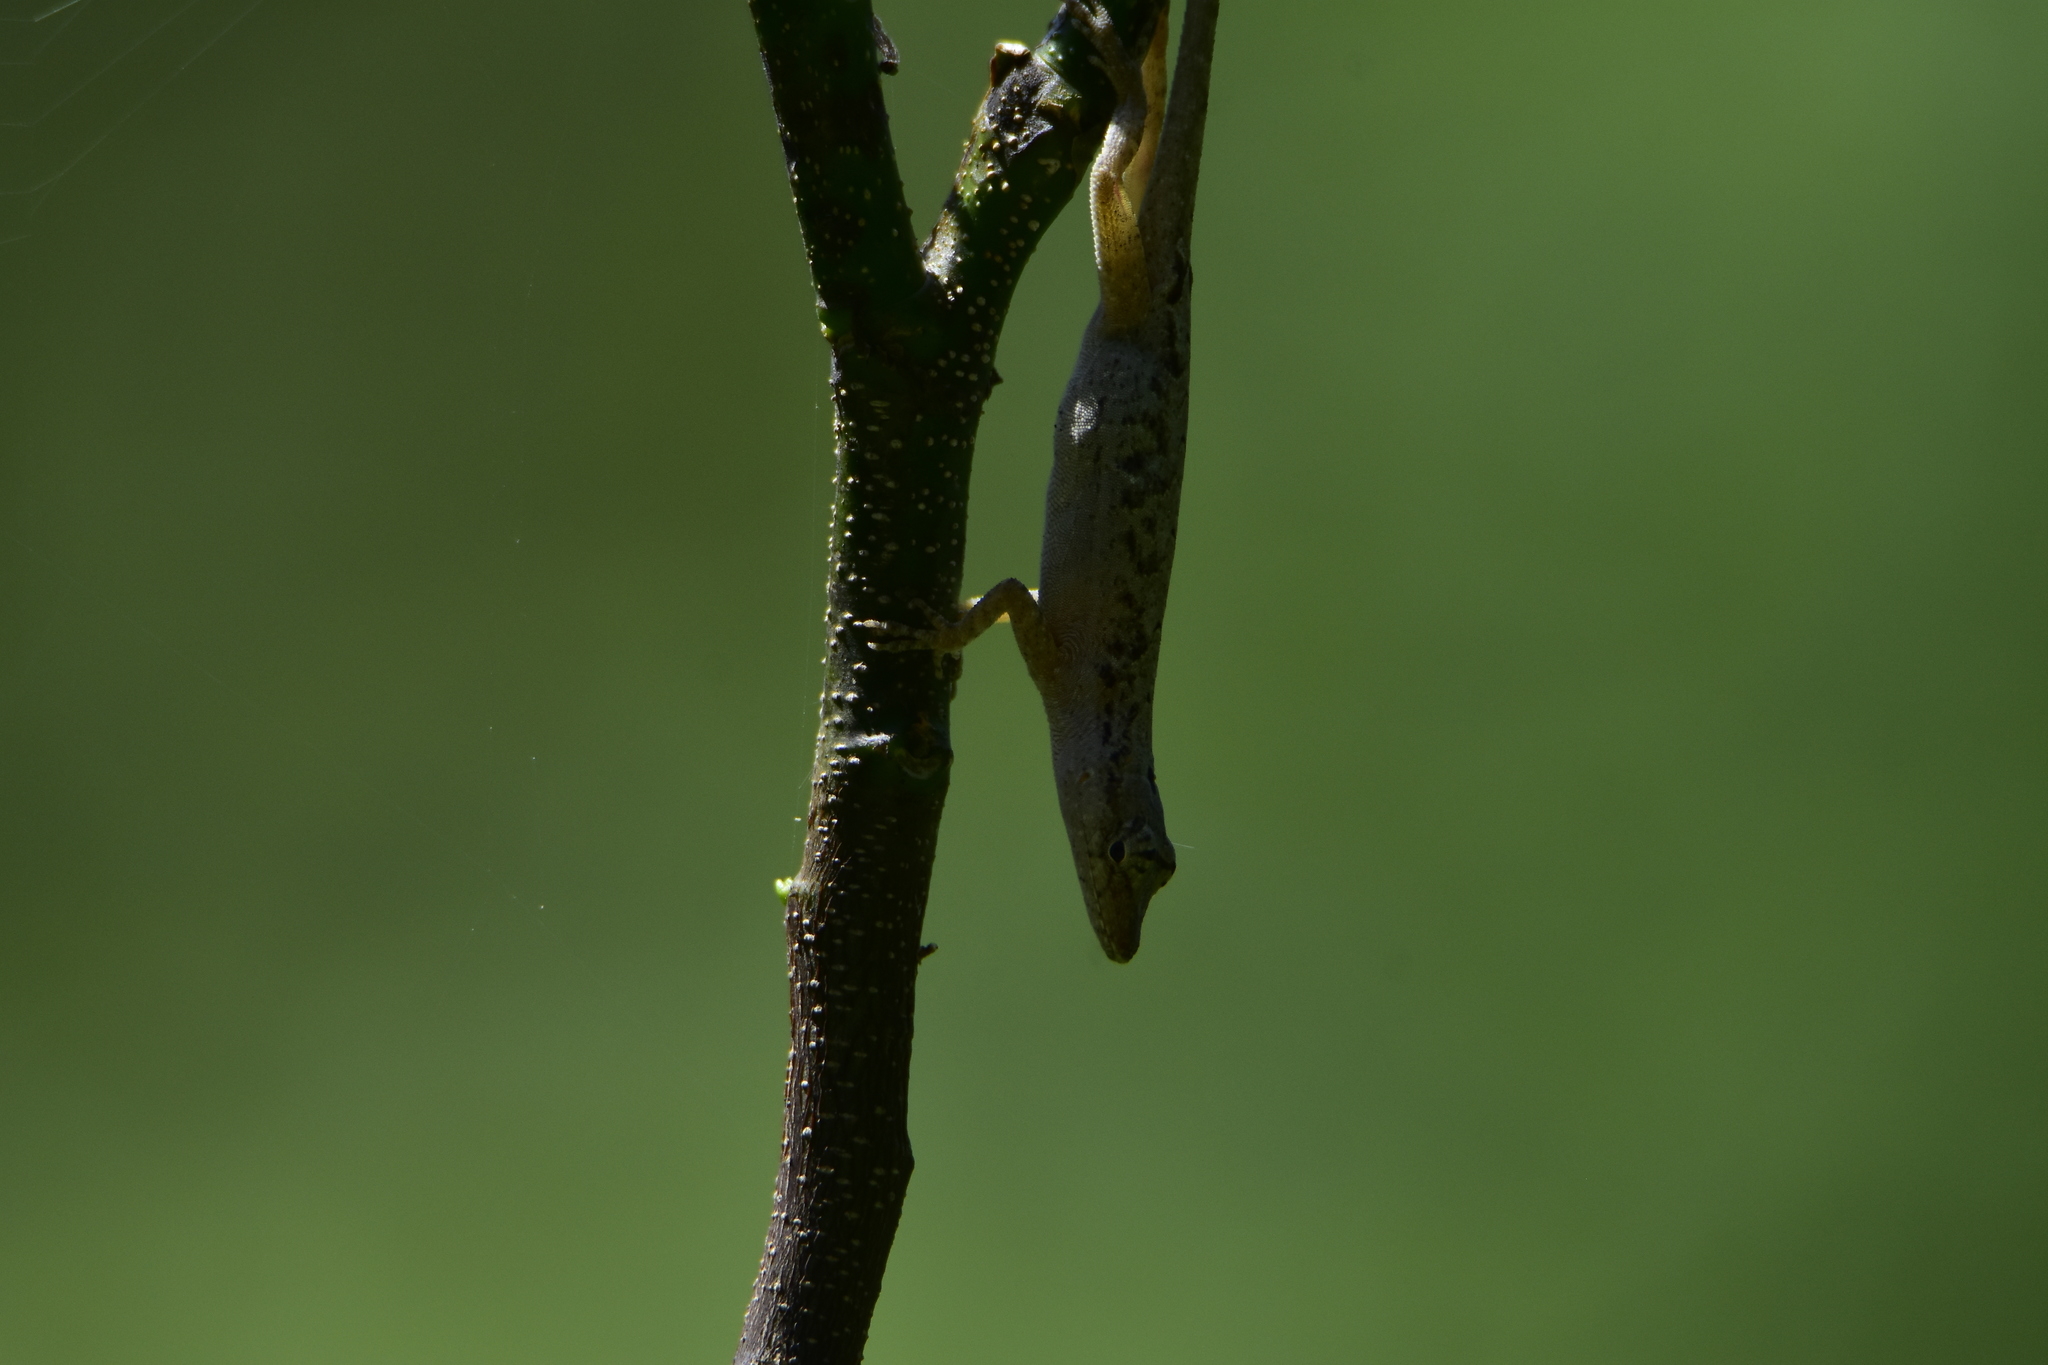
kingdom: Animalia
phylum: Chordata
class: Squamata
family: Dactyloidae
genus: Anolis
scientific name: Anolis nebulosus
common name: Clouded anole
